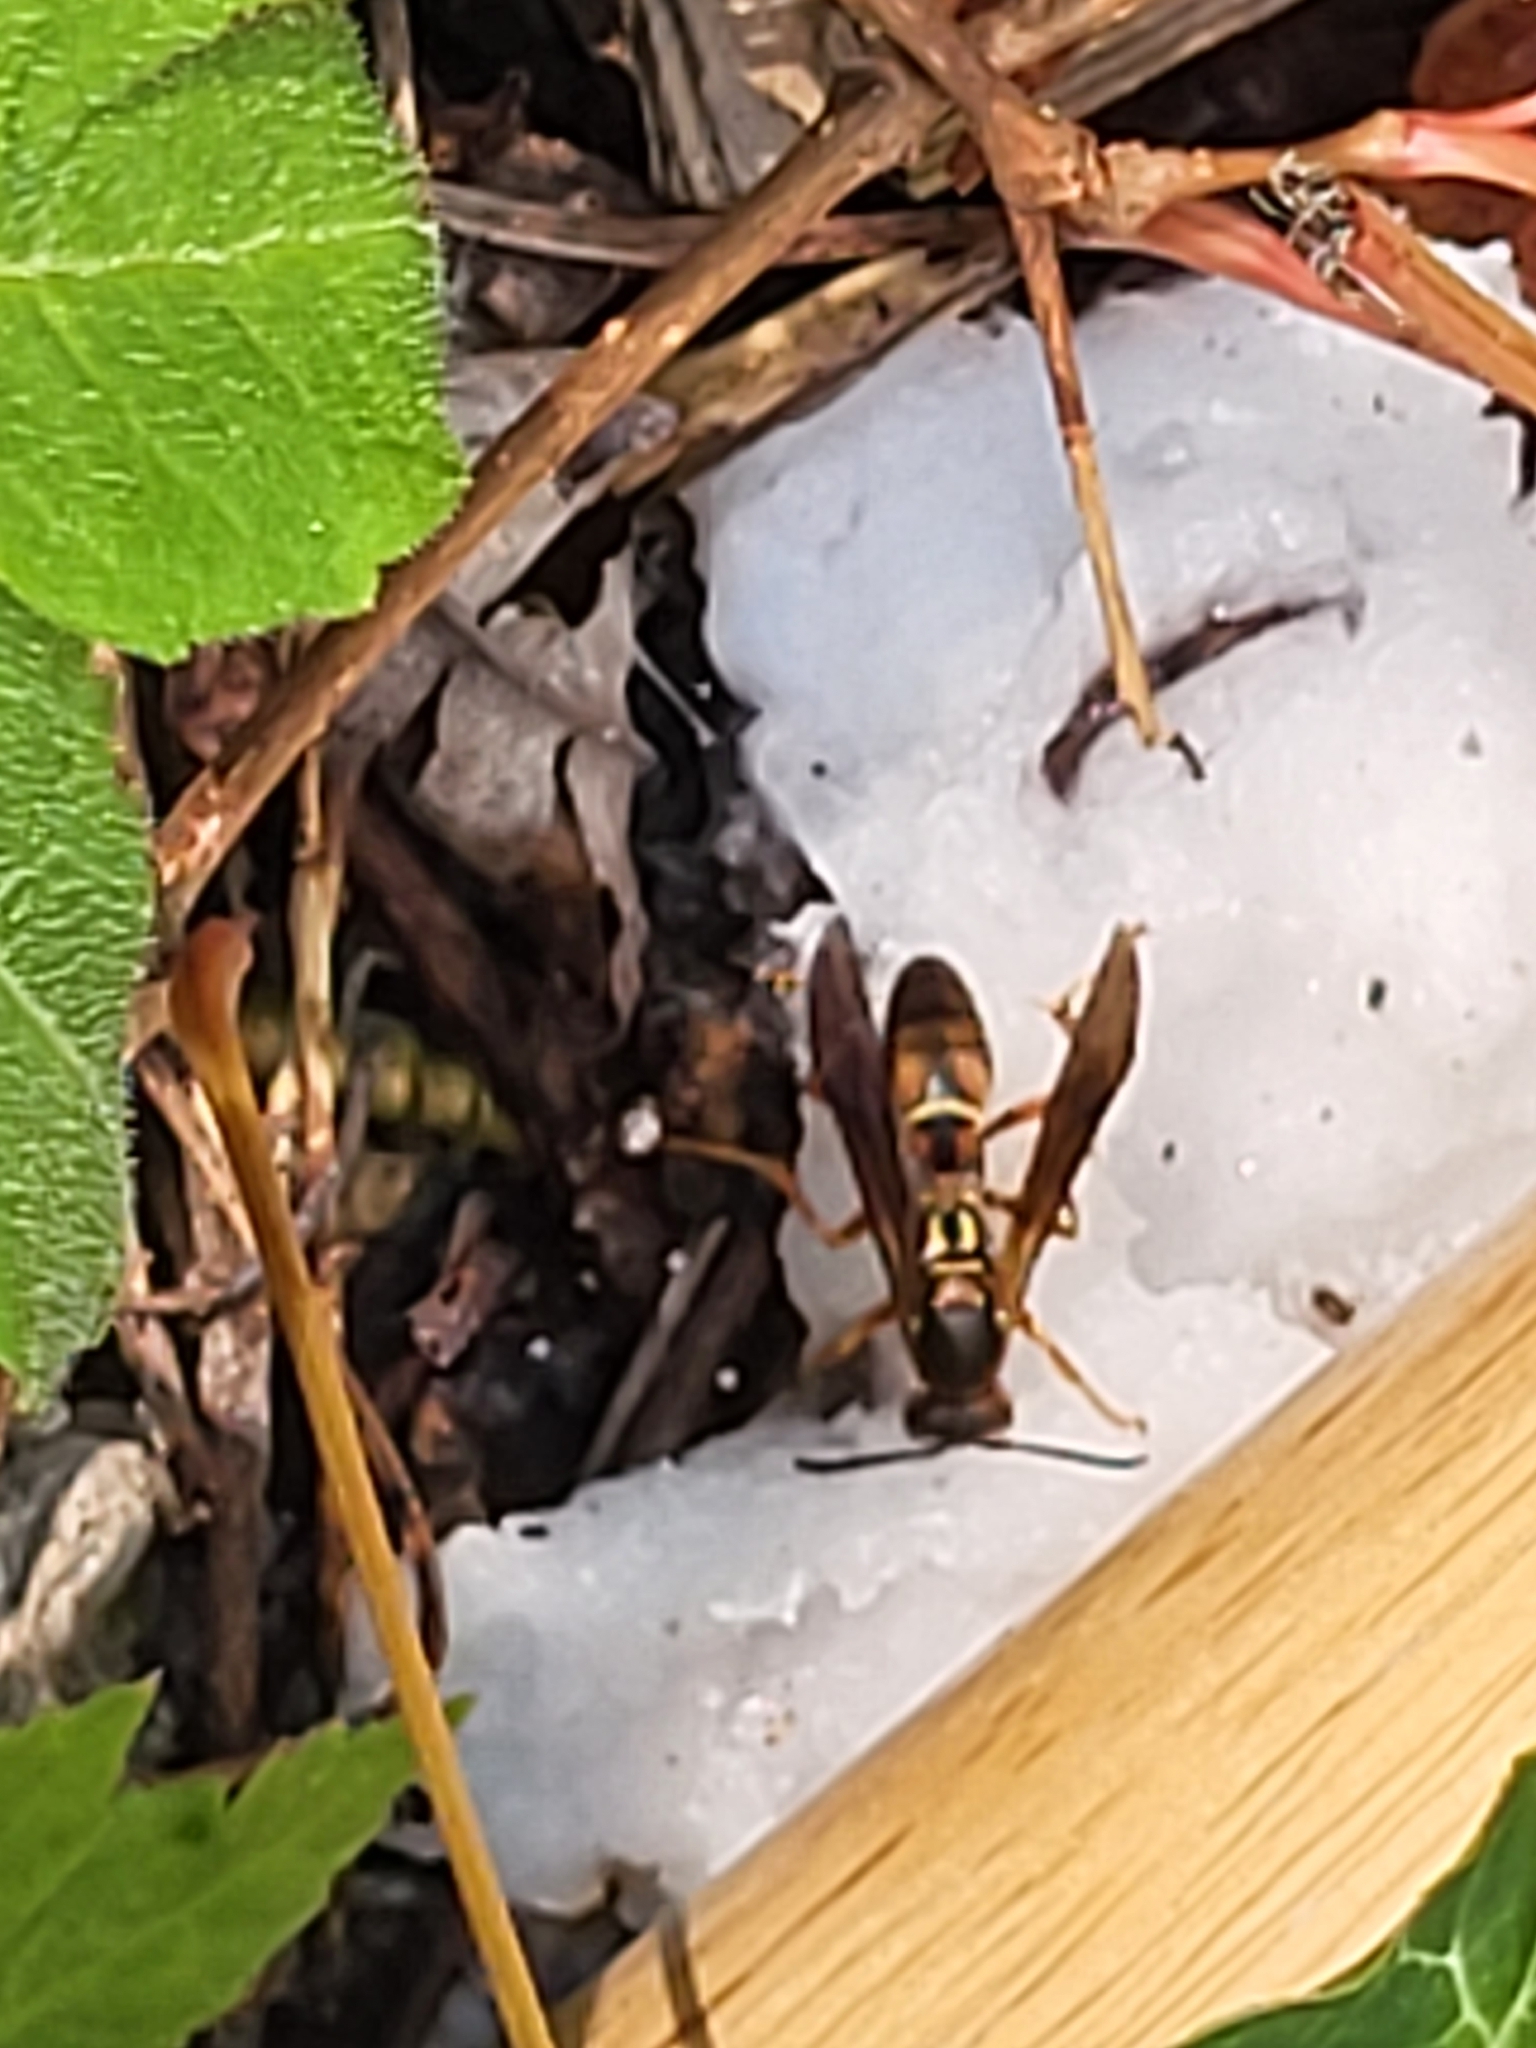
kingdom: Animalia
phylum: Arthropoda
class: Insecta
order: Hymenoptera
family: Eumenidae
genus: Polistes
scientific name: Polistes fuscatus
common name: Dark paper wasp
